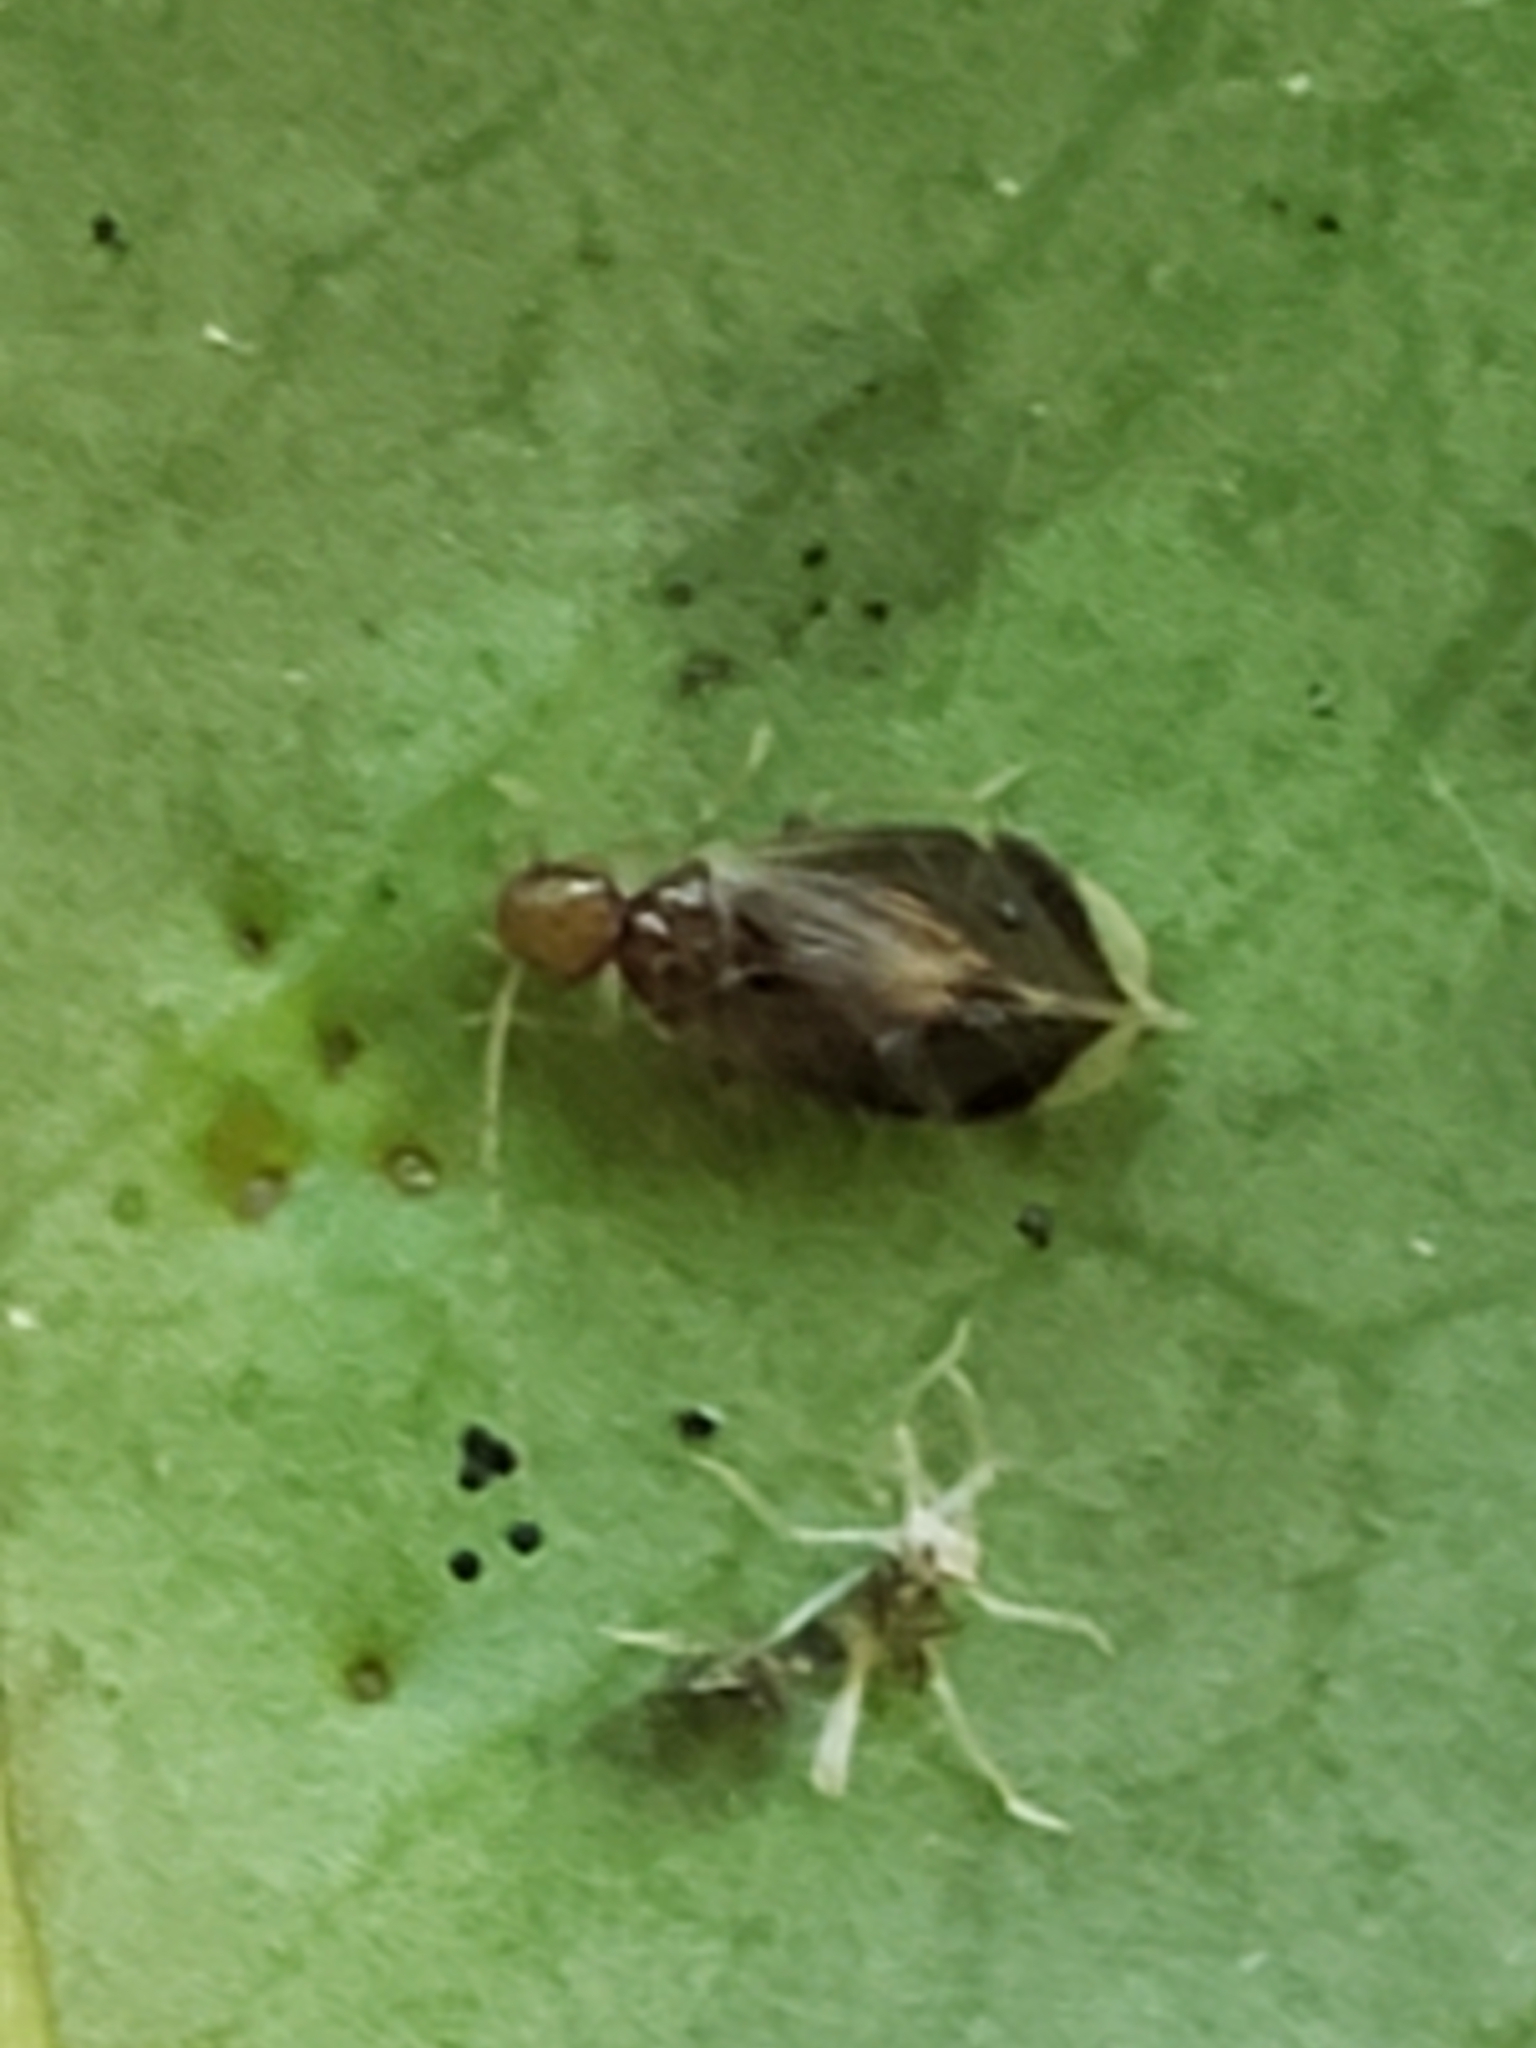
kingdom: Animalia
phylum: Arthropoda
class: Insecta
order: Psocodea
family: Amphipsocidae
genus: Polypsocus
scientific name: Polypsocus corruptus
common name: Corrupt barklouse
